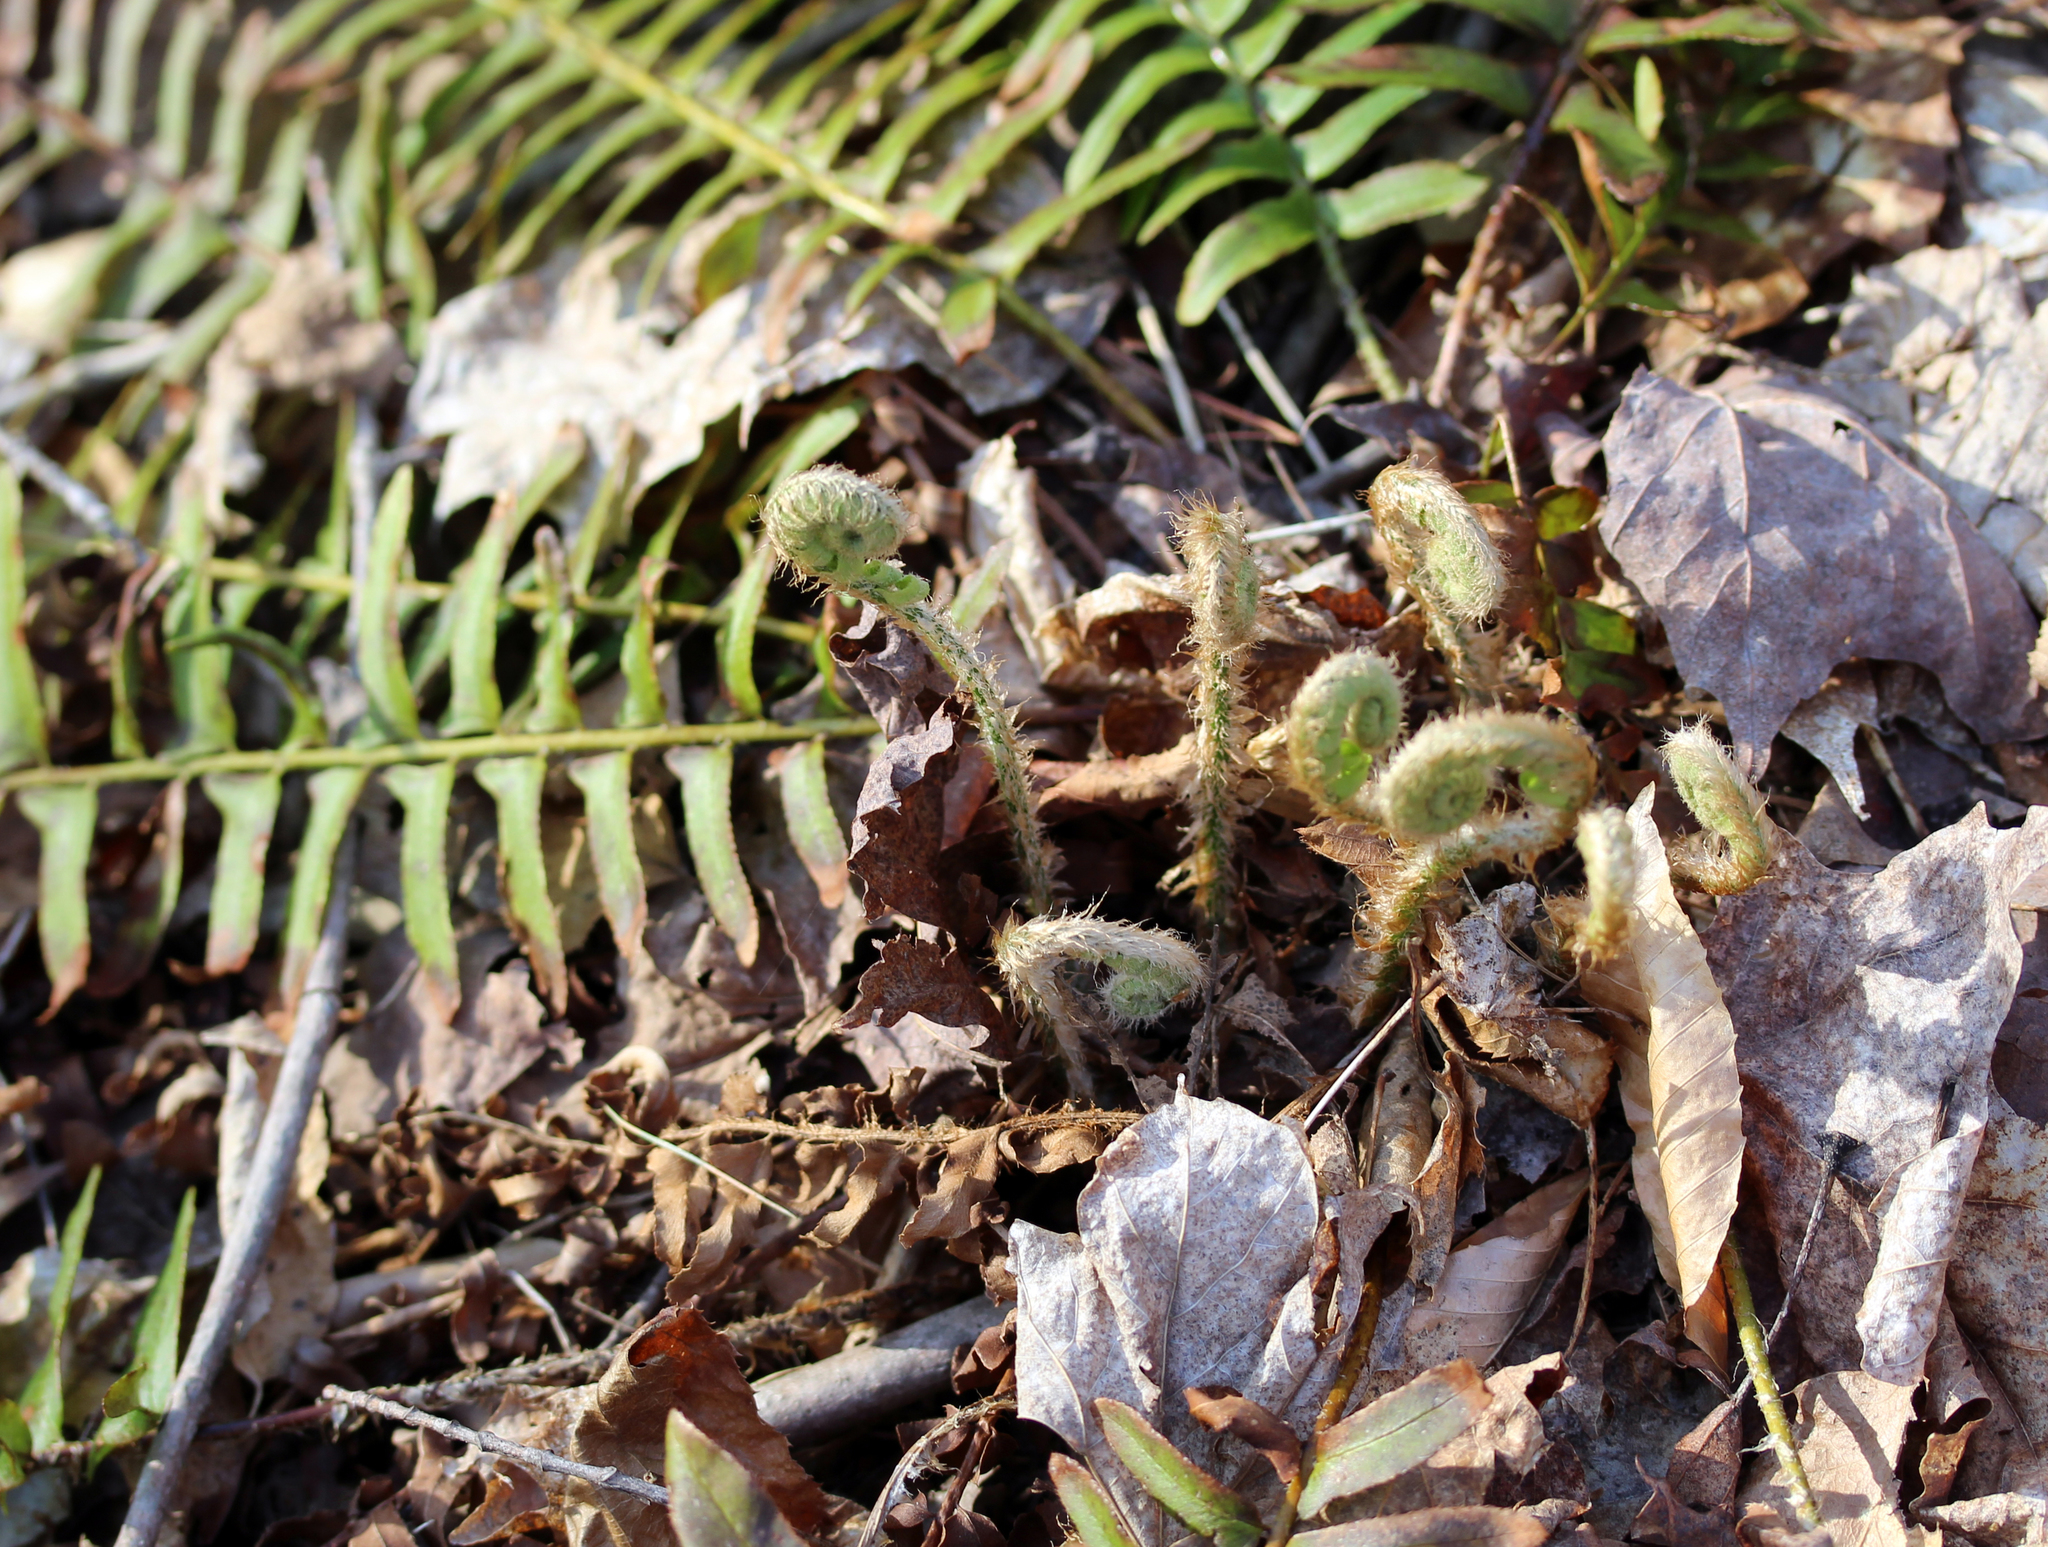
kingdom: Plantae
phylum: Tracheophyta
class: Polypodiopsida
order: Polypodiales
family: Dryopteridaceae
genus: Polystichum
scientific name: Polystichum acrostichoides
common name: Christmas fern
